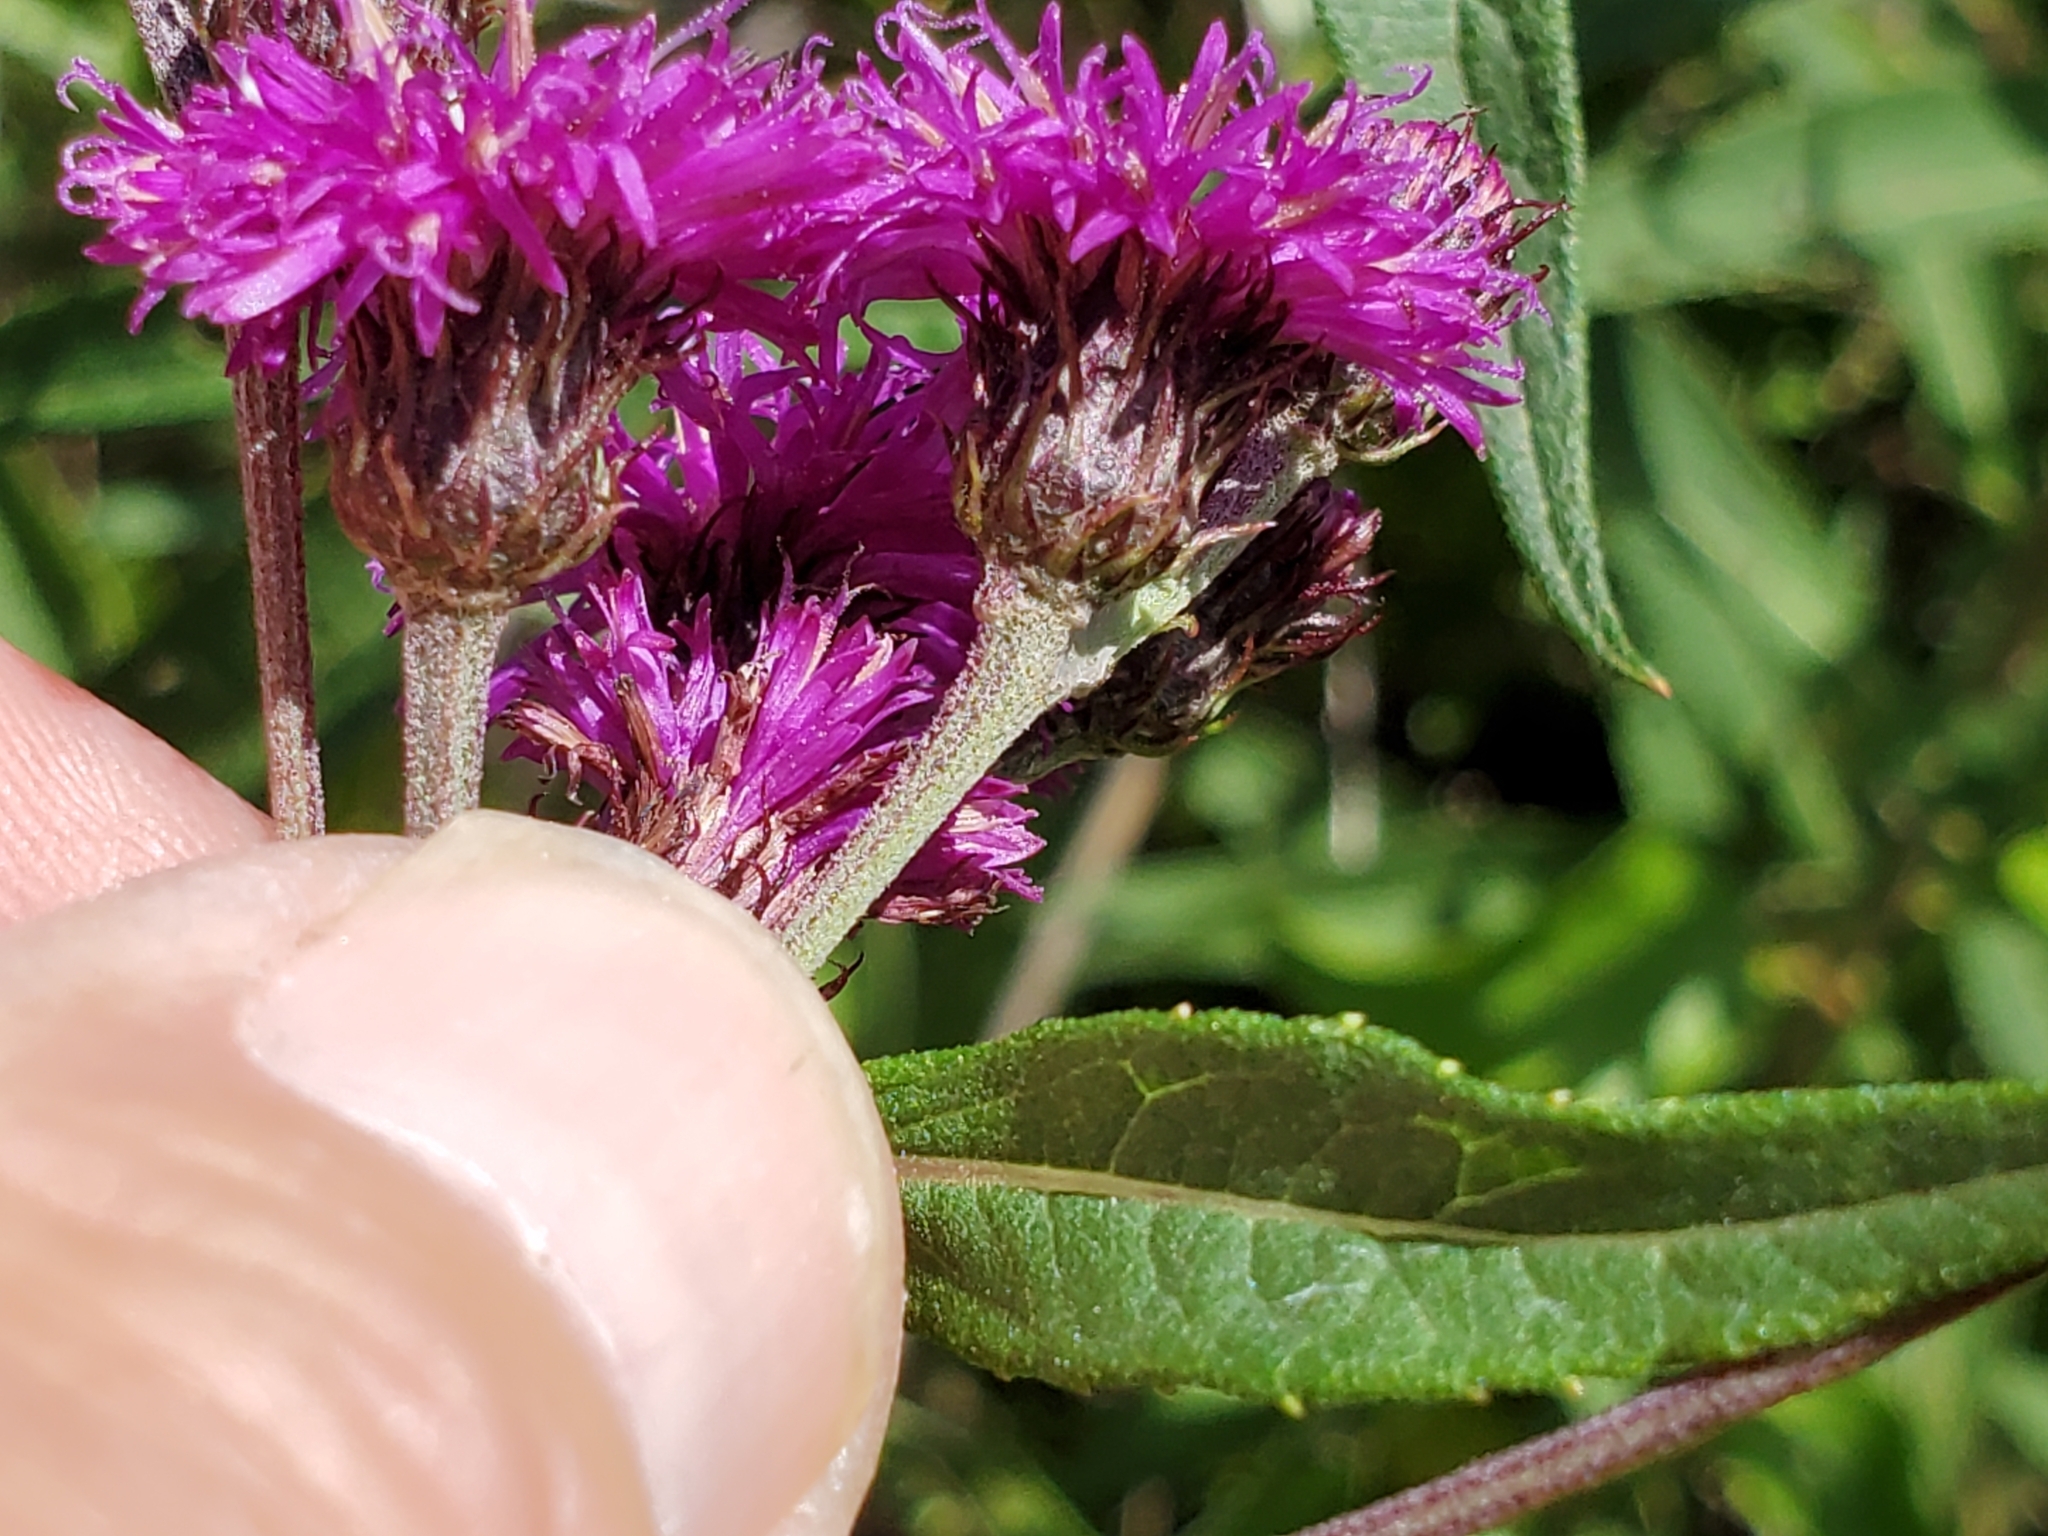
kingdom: Plantae
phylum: Tracheophyta
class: Magnoliopsida
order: Asterales
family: Asteraceae
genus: Vernonia
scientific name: Vernonia noveboracensis
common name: New york ironweed
